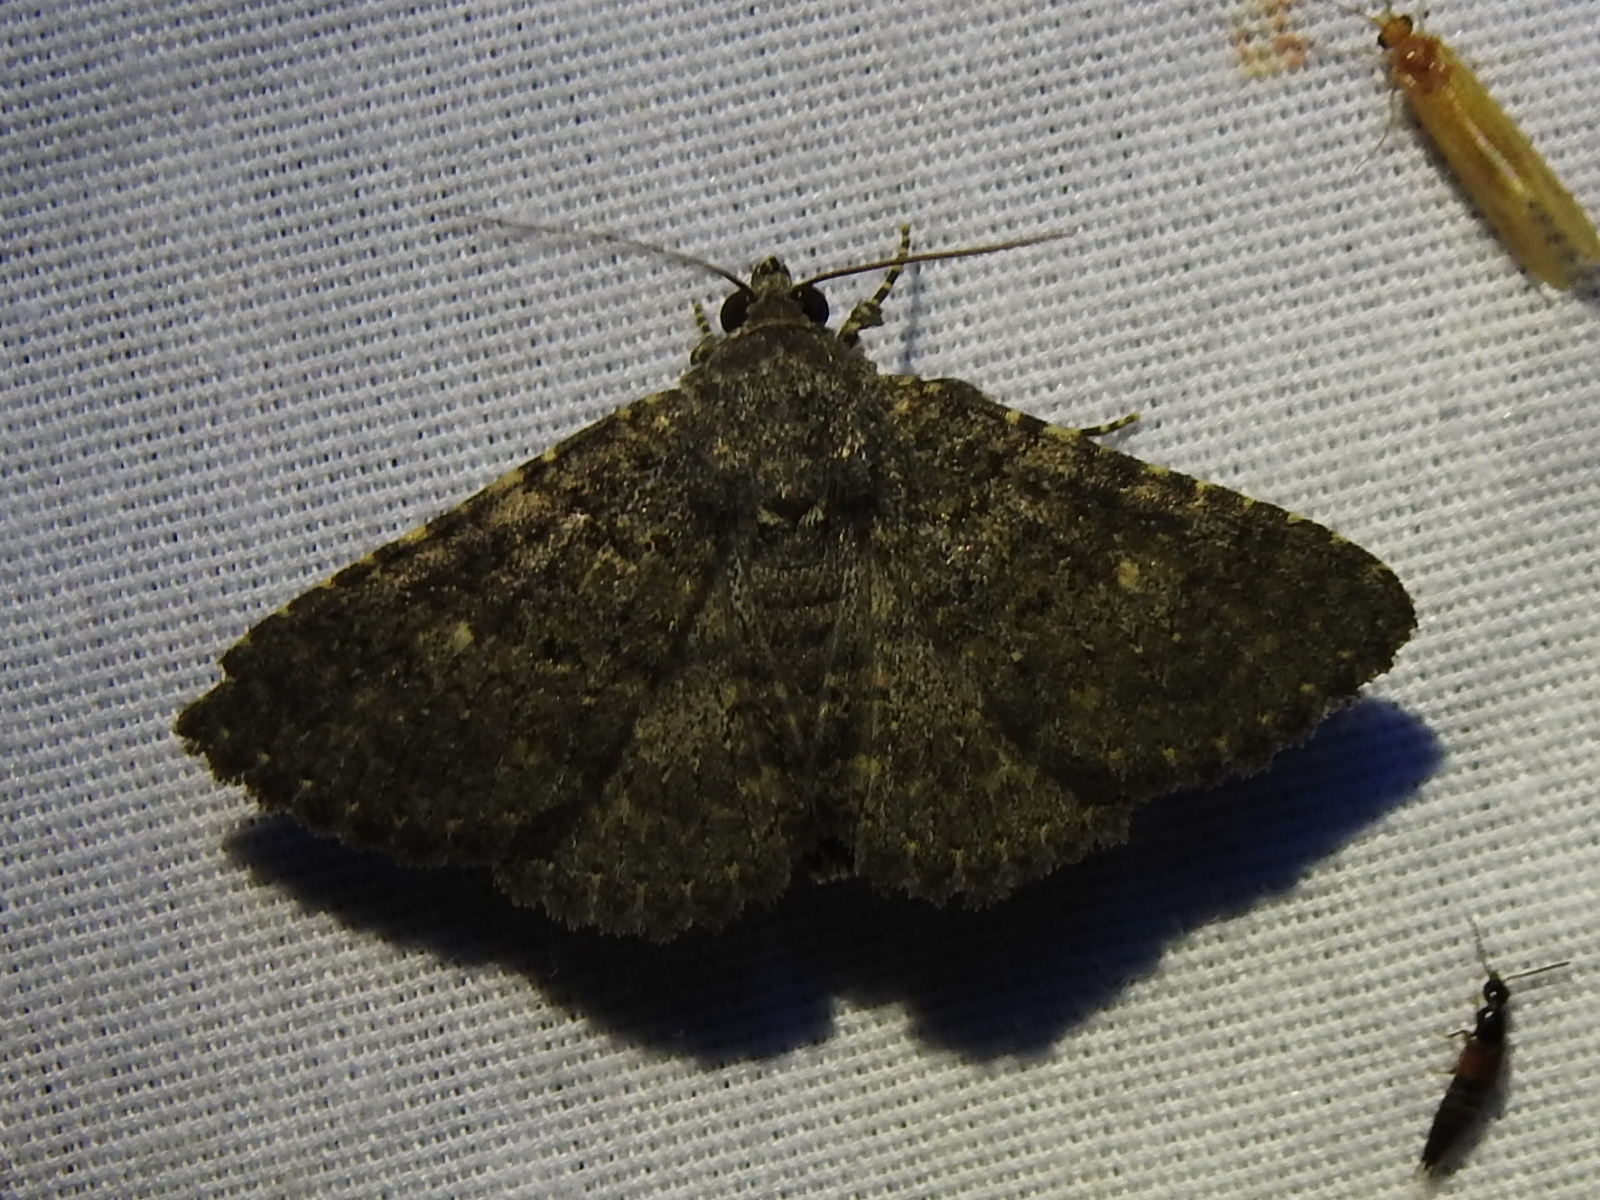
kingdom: Animalia
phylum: Arthropoda
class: Insecta
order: Lepidoptera
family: Erebidae
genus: Matigramma
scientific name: Matigramma obscurior
